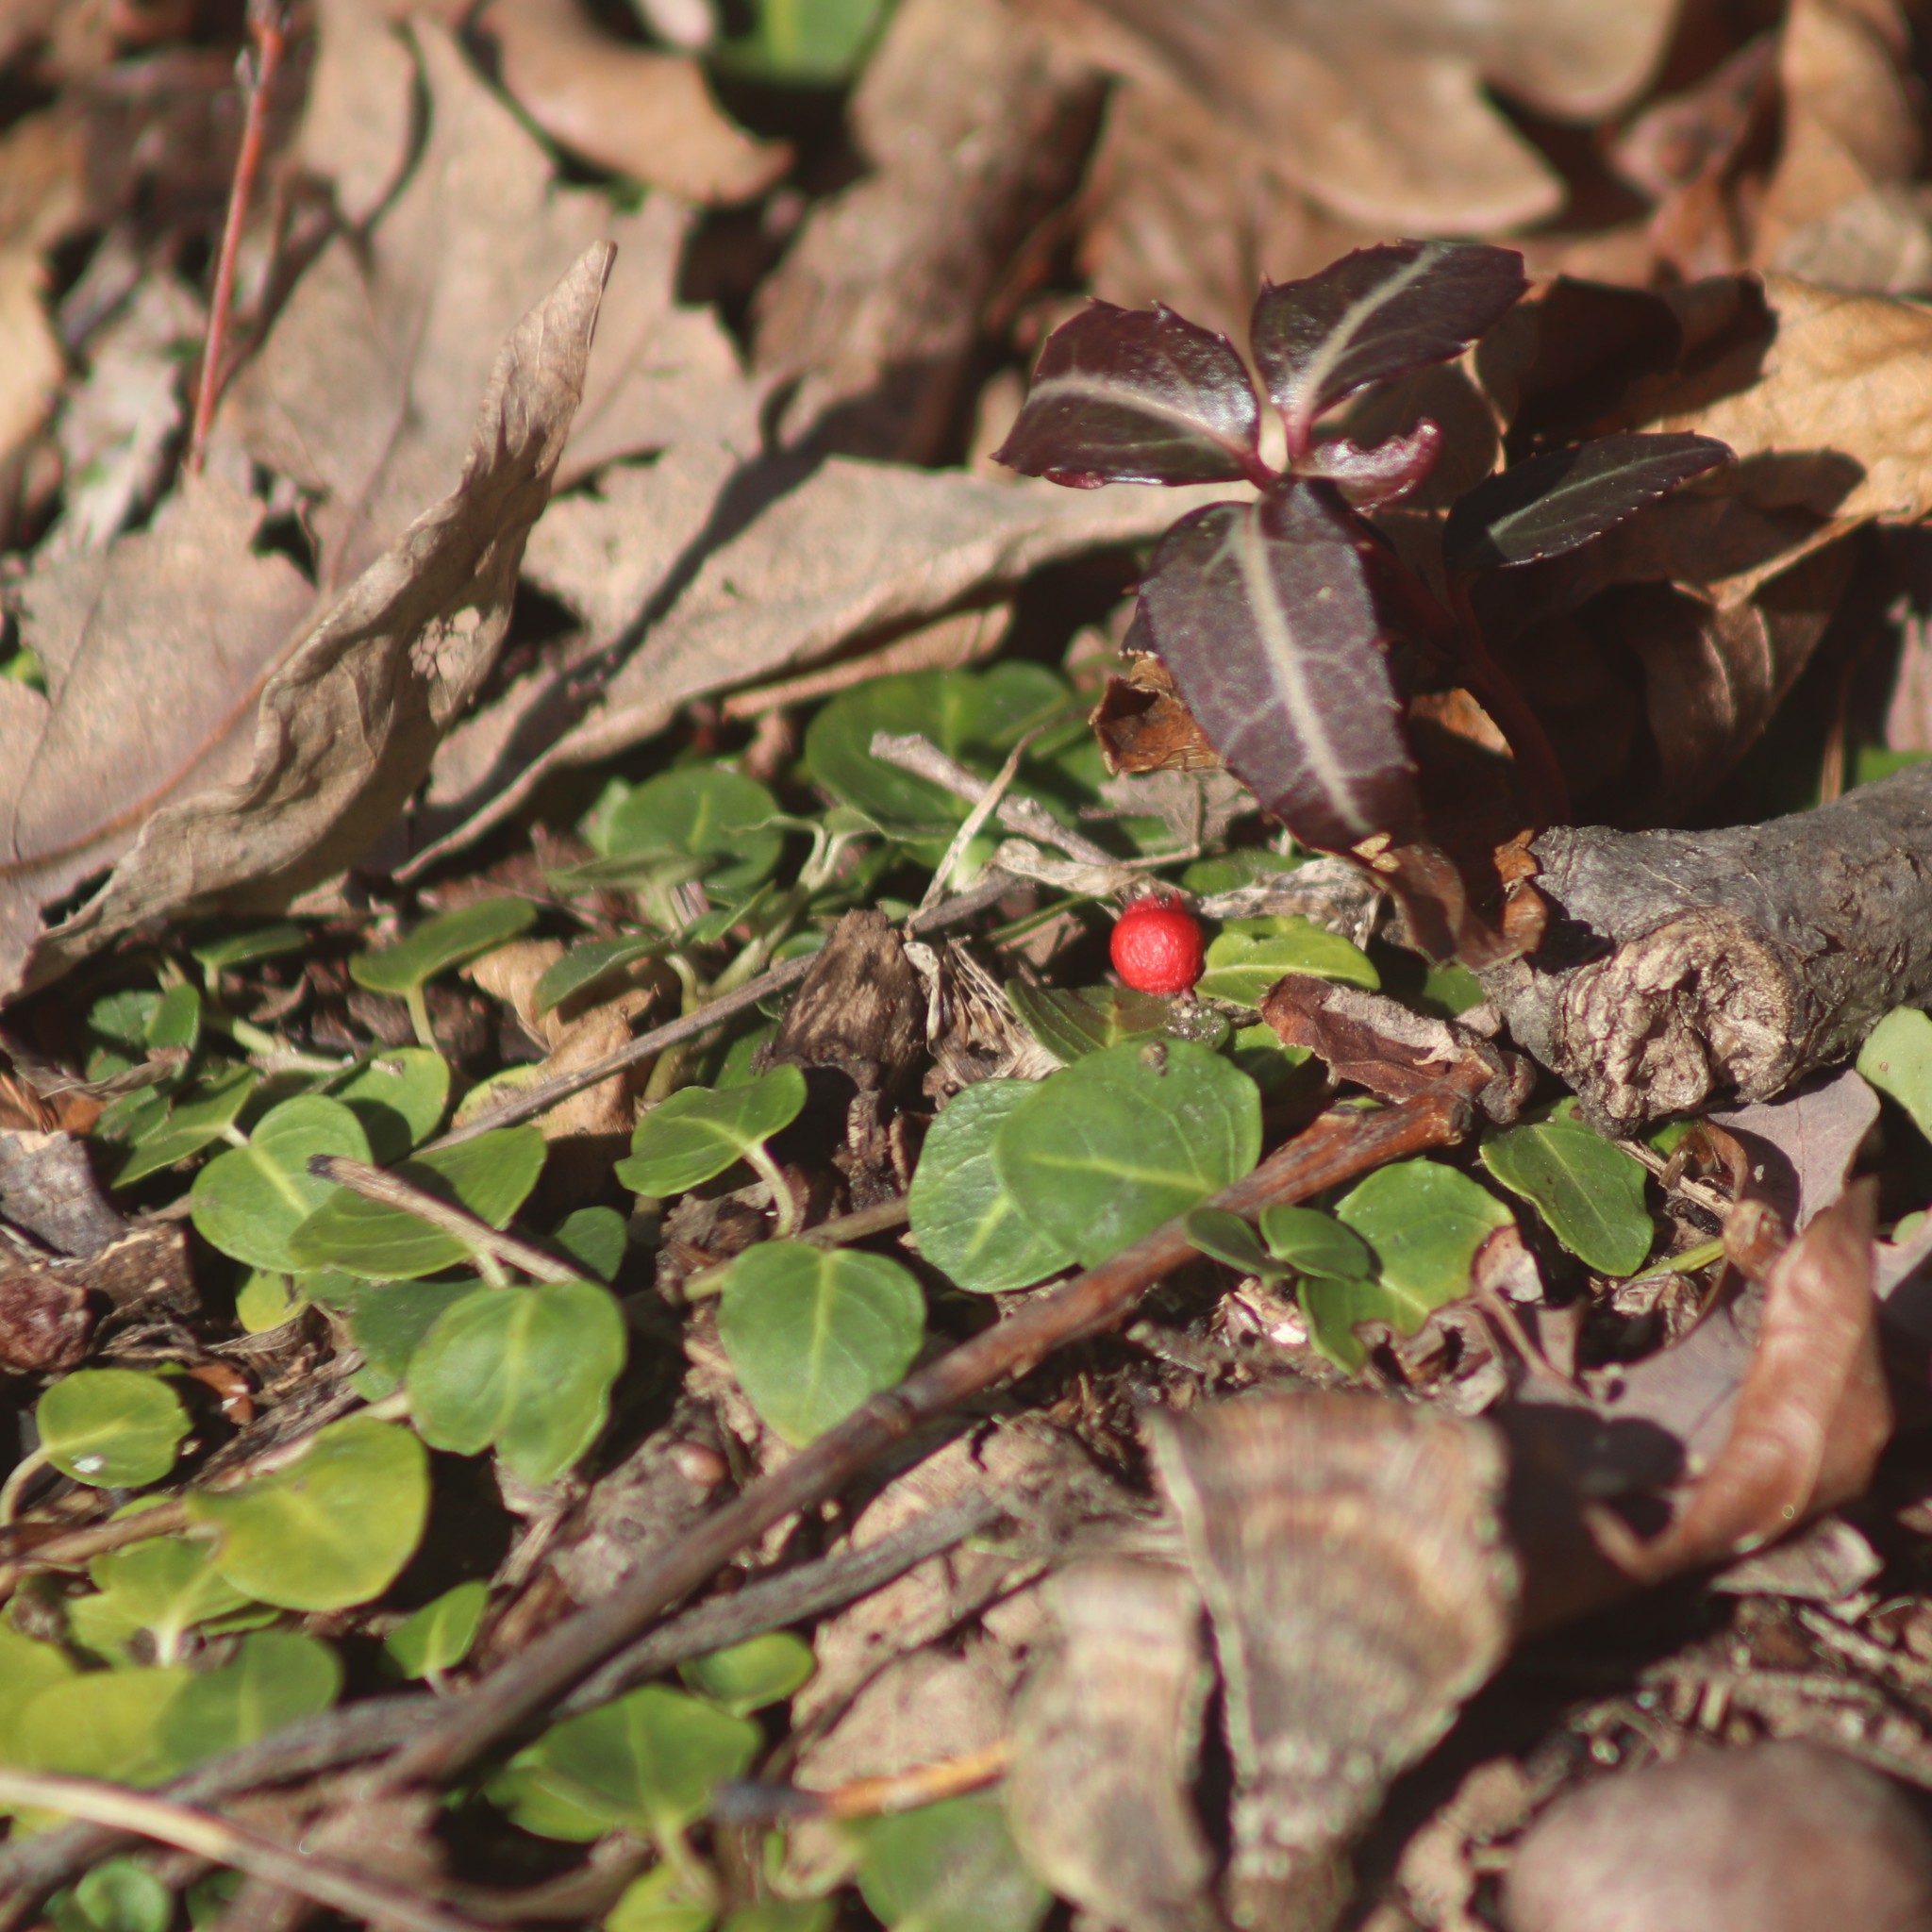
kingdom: Plantae
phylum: Tracheophyta
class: Magnoliopsida
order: Gentianales
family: Rubiaceae
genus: Mitchella
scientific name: Mitchella repens
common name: Partridge-berry
